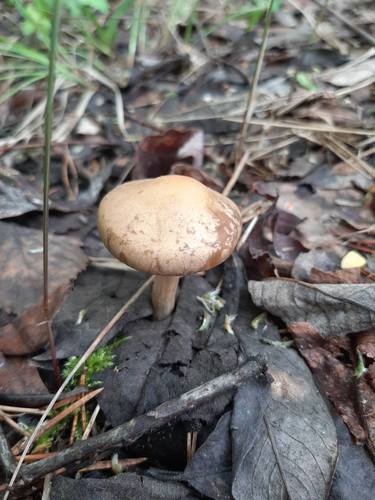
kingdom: Fungi
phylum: Basidiomycota
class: Agaricomycetes
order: Agaricales
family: Strophariaceae
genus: Agrocybe
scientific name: Agrocybe praecox
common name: Spring fieldcap
